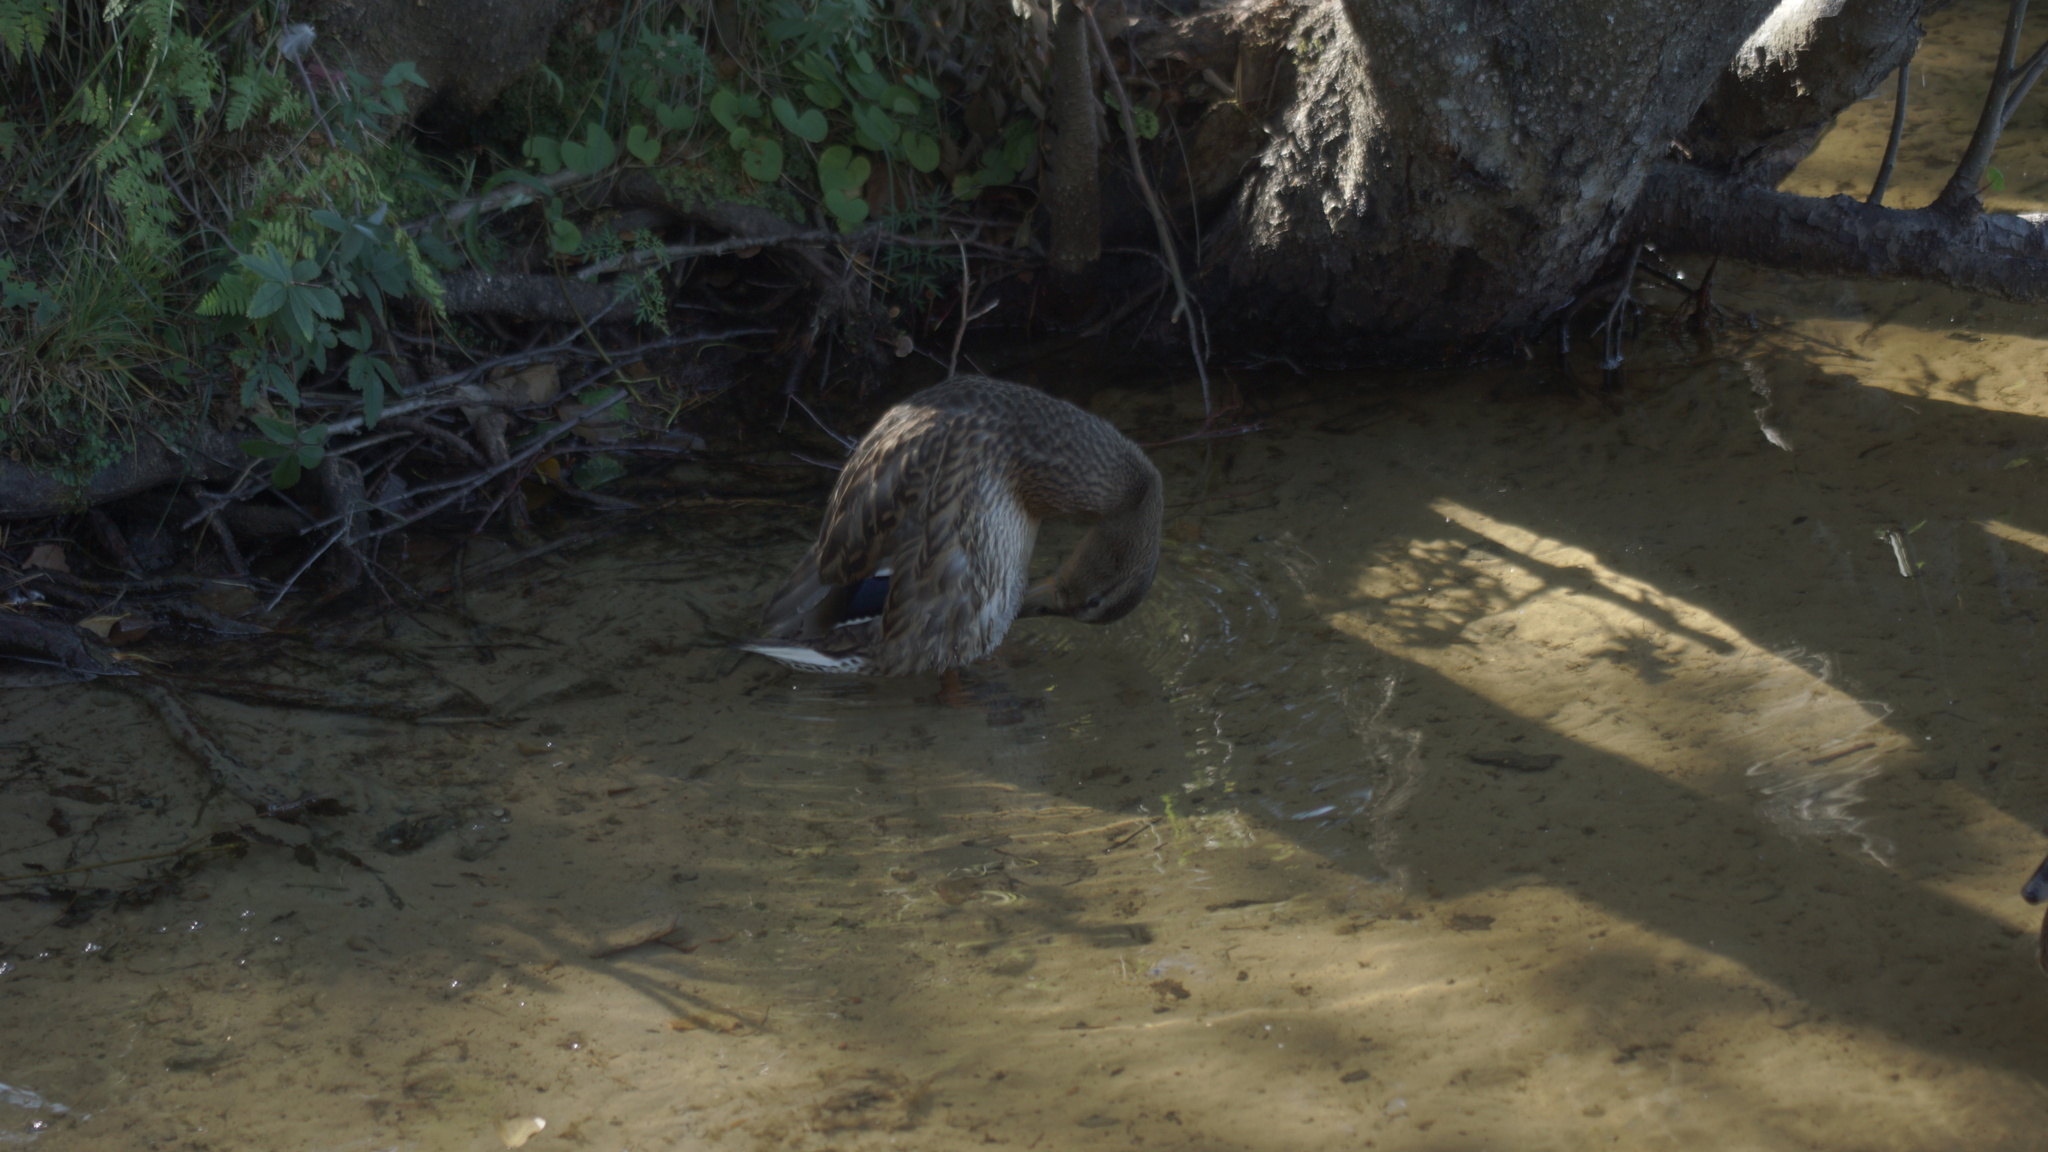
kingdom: Animalia
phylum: Chordata
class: Aves
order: Anseriformes
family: Anatidae
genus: Anas
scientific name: Anas platyrhynchos
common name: Mallard
